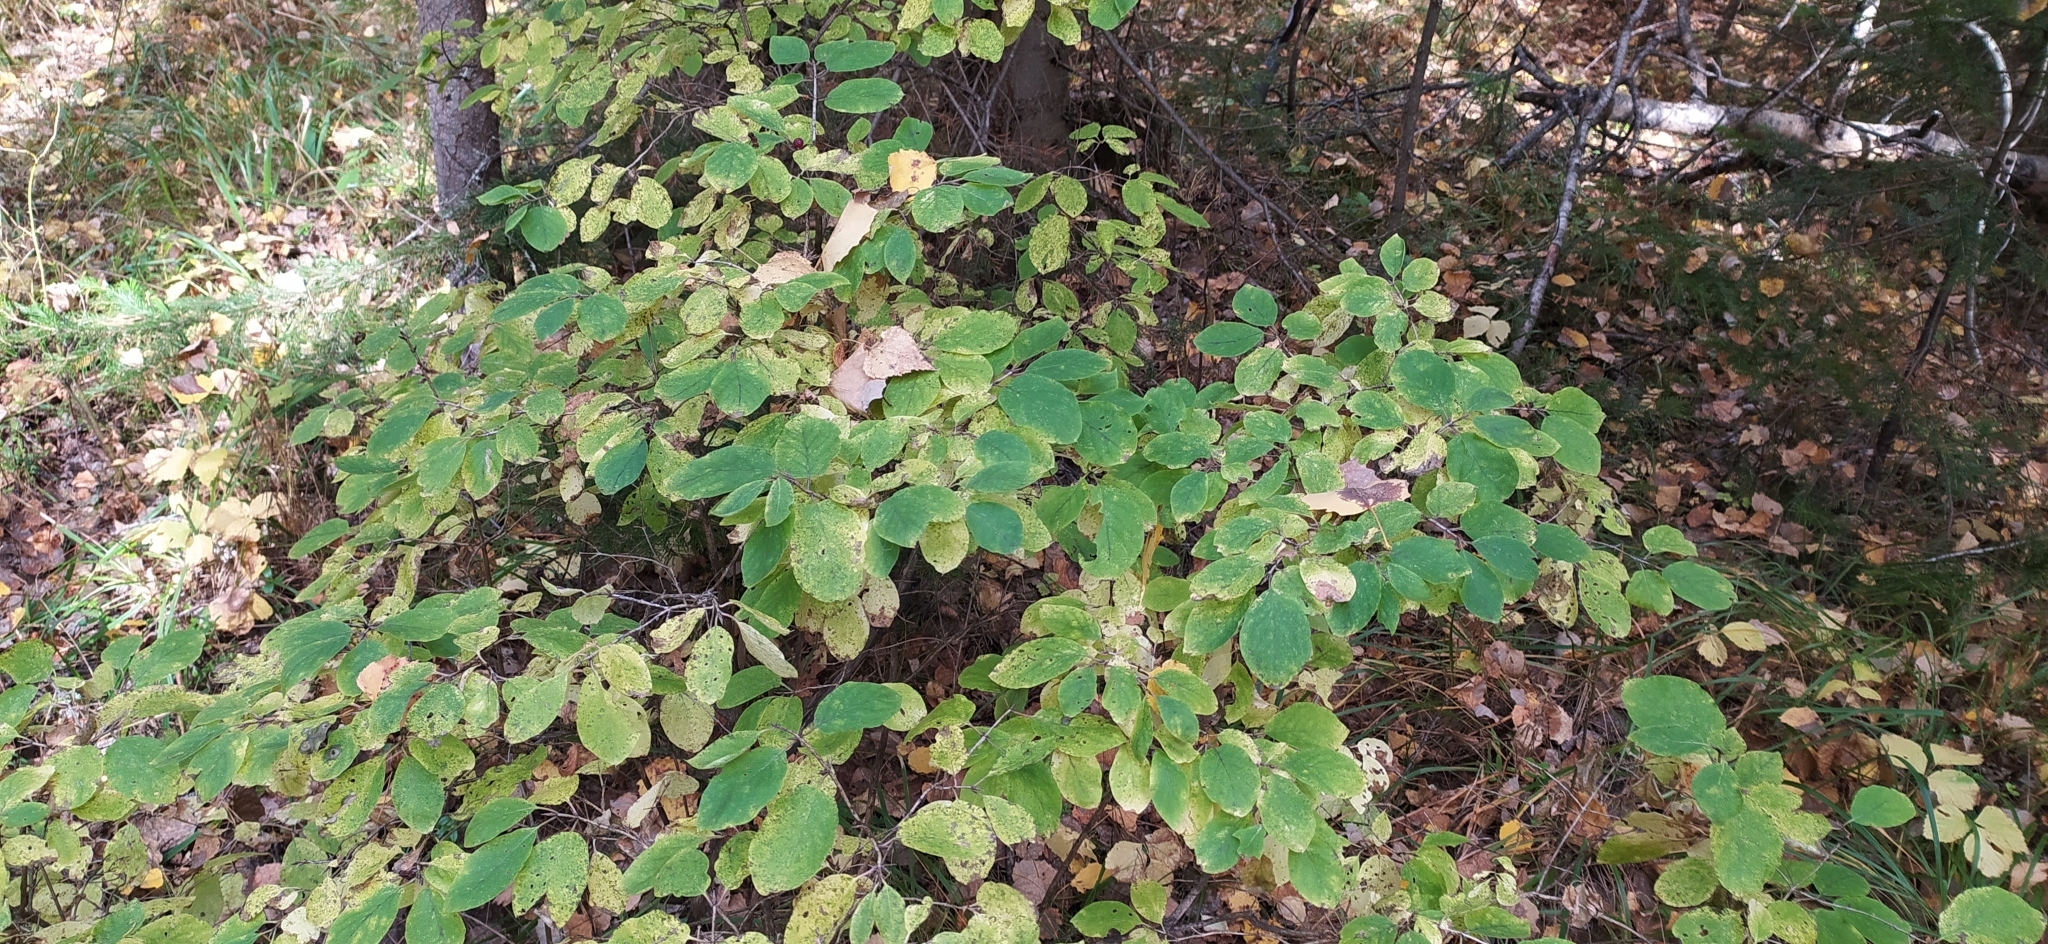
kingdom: Plantae
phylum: Tracheophyta
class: Magnoliopsida
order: Dipsacales
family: Caprifoliaceae
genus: Lonicera
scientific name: Lonicera xylosteum
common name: Fly honeysuckle
